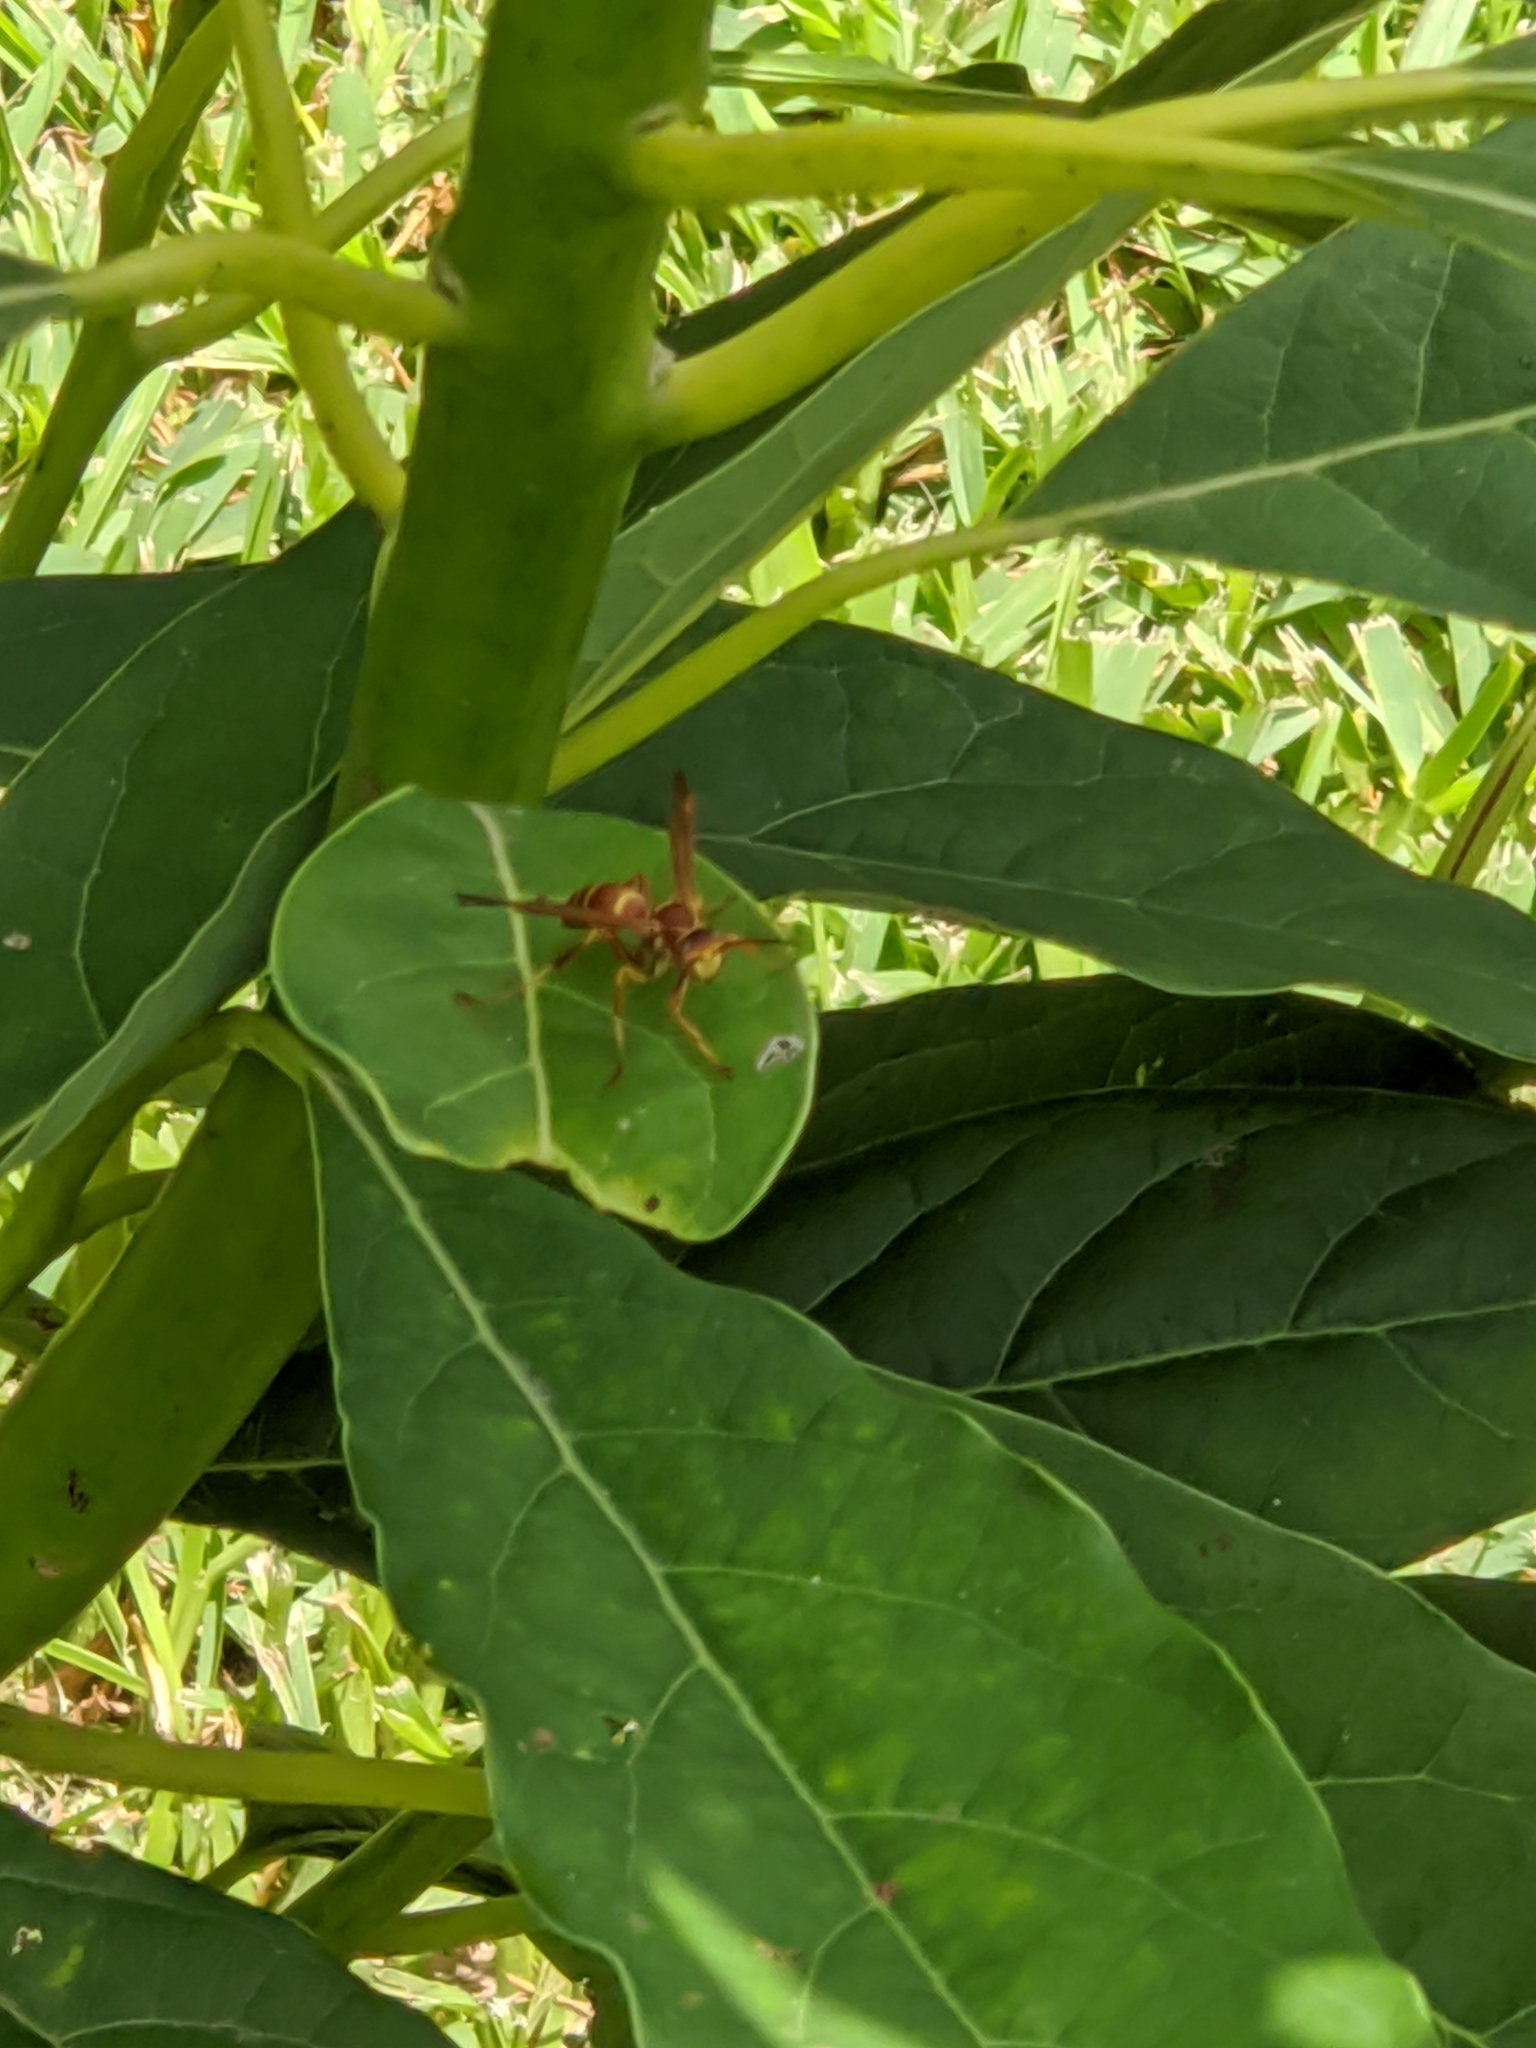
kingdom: Animalia
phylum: Arthropoda
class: Insecta
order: Hymenoptera
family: Eumenidae
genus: Polistes
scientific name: Polistes exclamans
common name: Paper wasp
